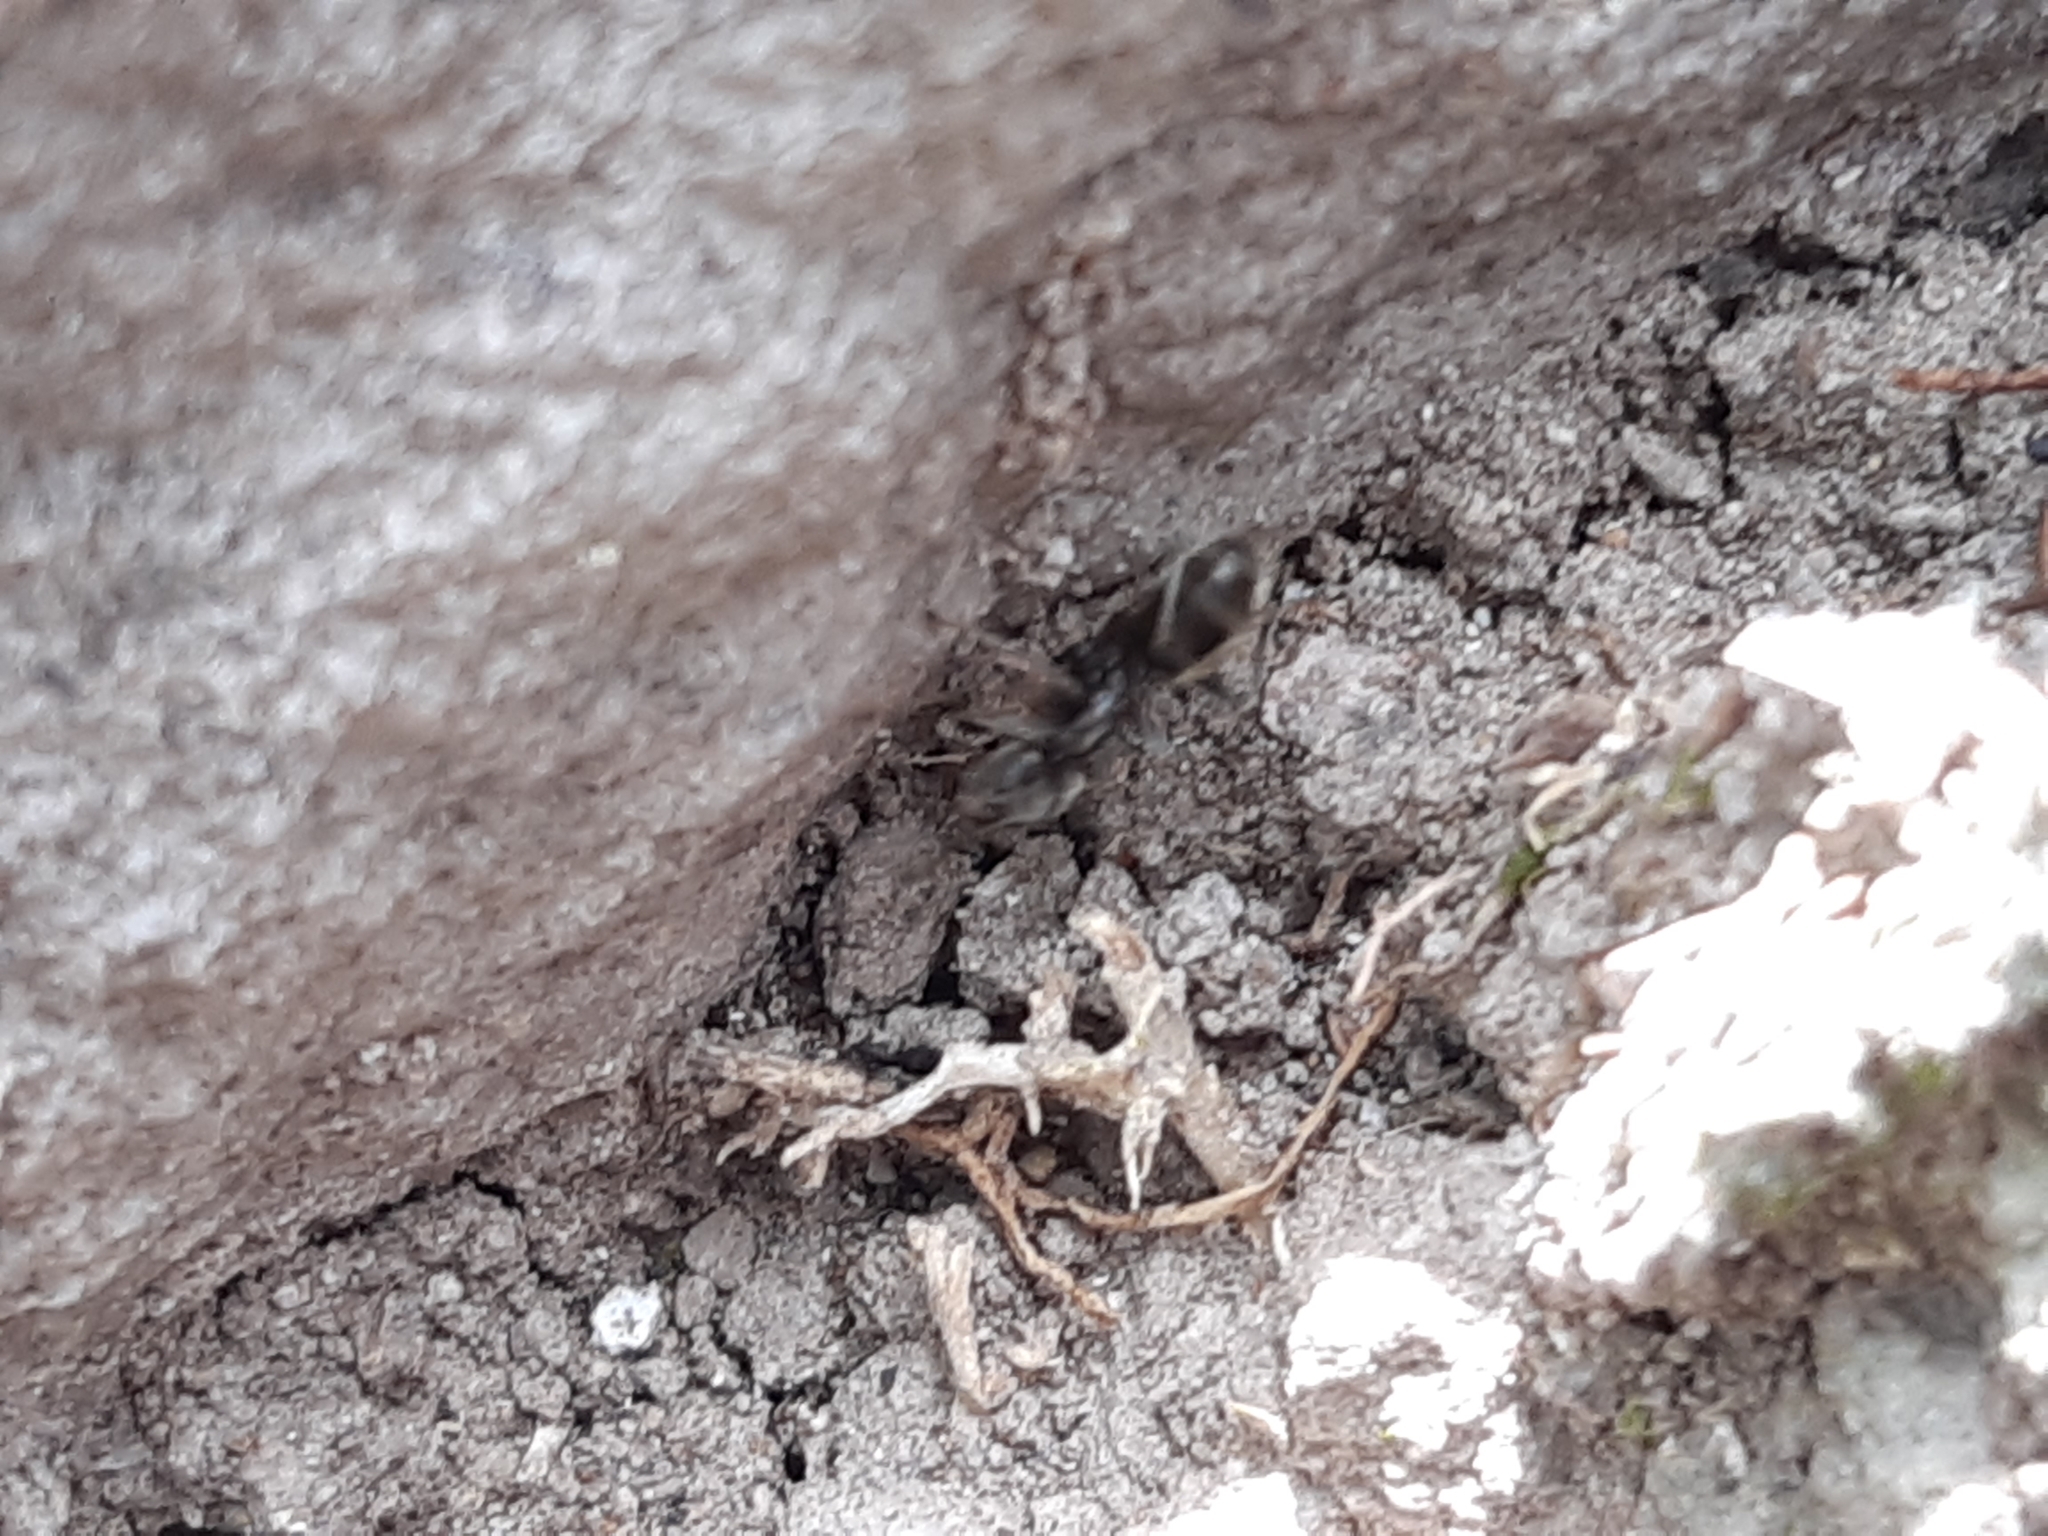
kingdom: Animalia
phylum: Arthropoda
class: Insecta
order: Hymenoptera
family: Formicidae
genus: Liometopum
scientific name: Liometopum apiculatum
